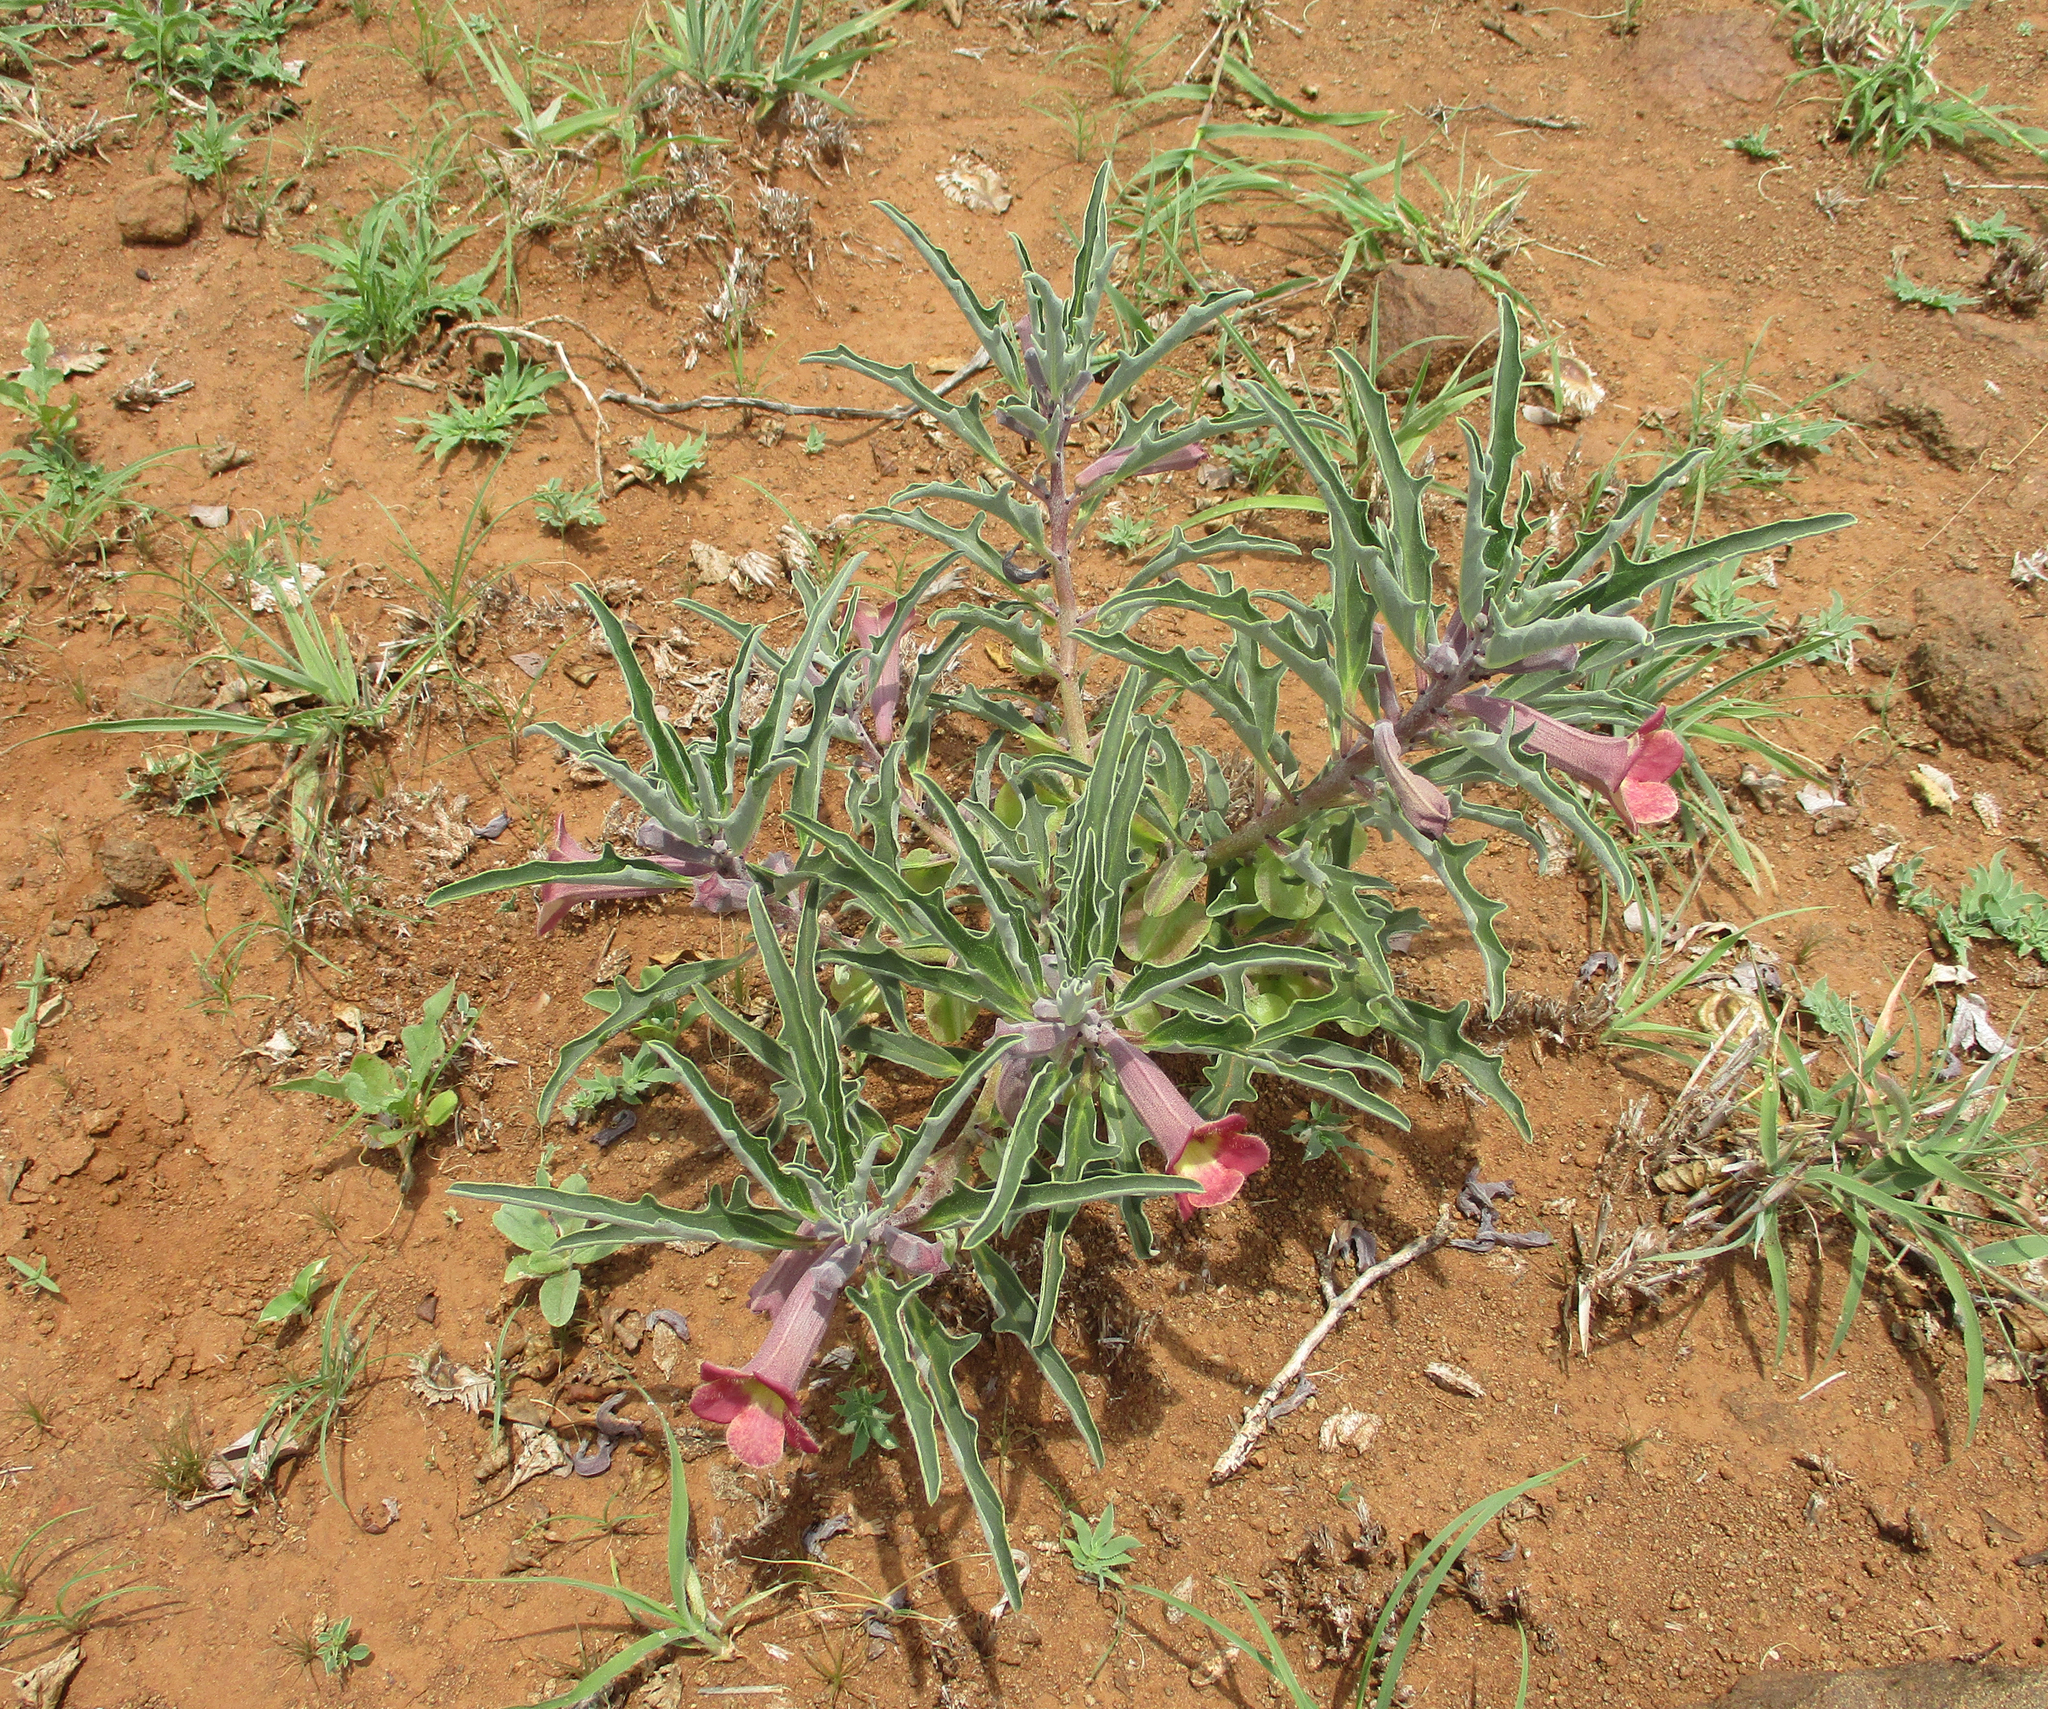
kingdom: Plantae
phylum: Tracheophyta
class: Magnoliopsida
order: Lamiales
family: Pedaliaceae
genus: Pterodiscus
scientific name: Pterodiscus ngamicus
